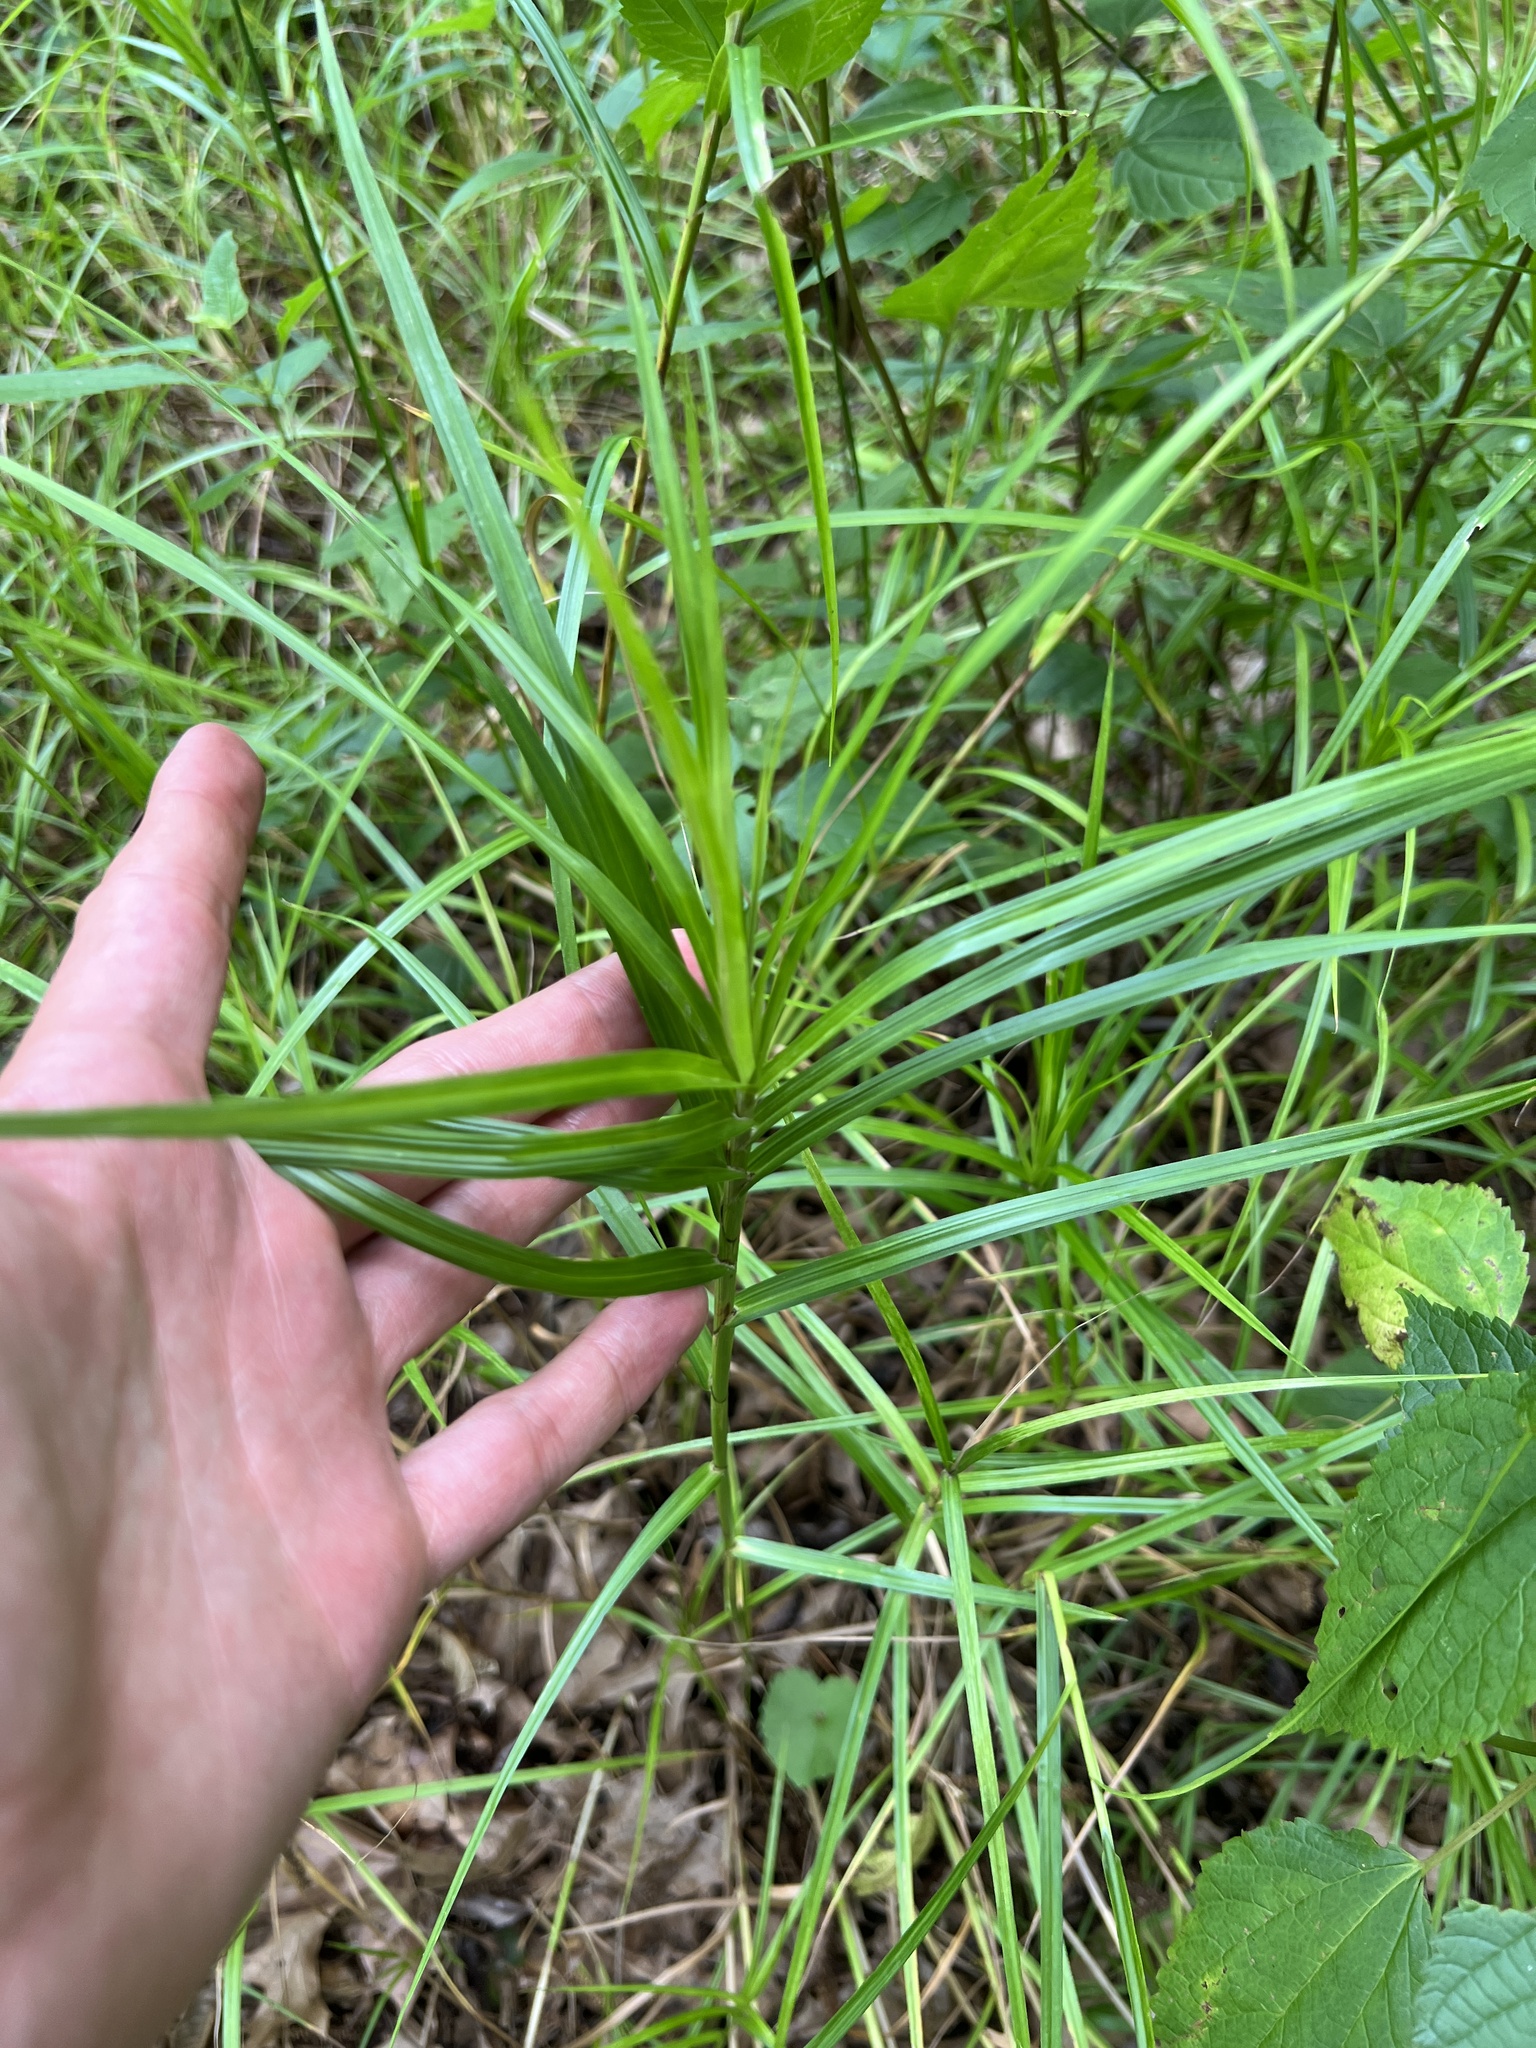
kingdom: Plantae
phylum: Tracheophyta
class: Liliopsida
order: Poales
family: Cyperaceae
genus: Carex
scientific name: Carex muskingumensis
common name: Muskingum sedge
